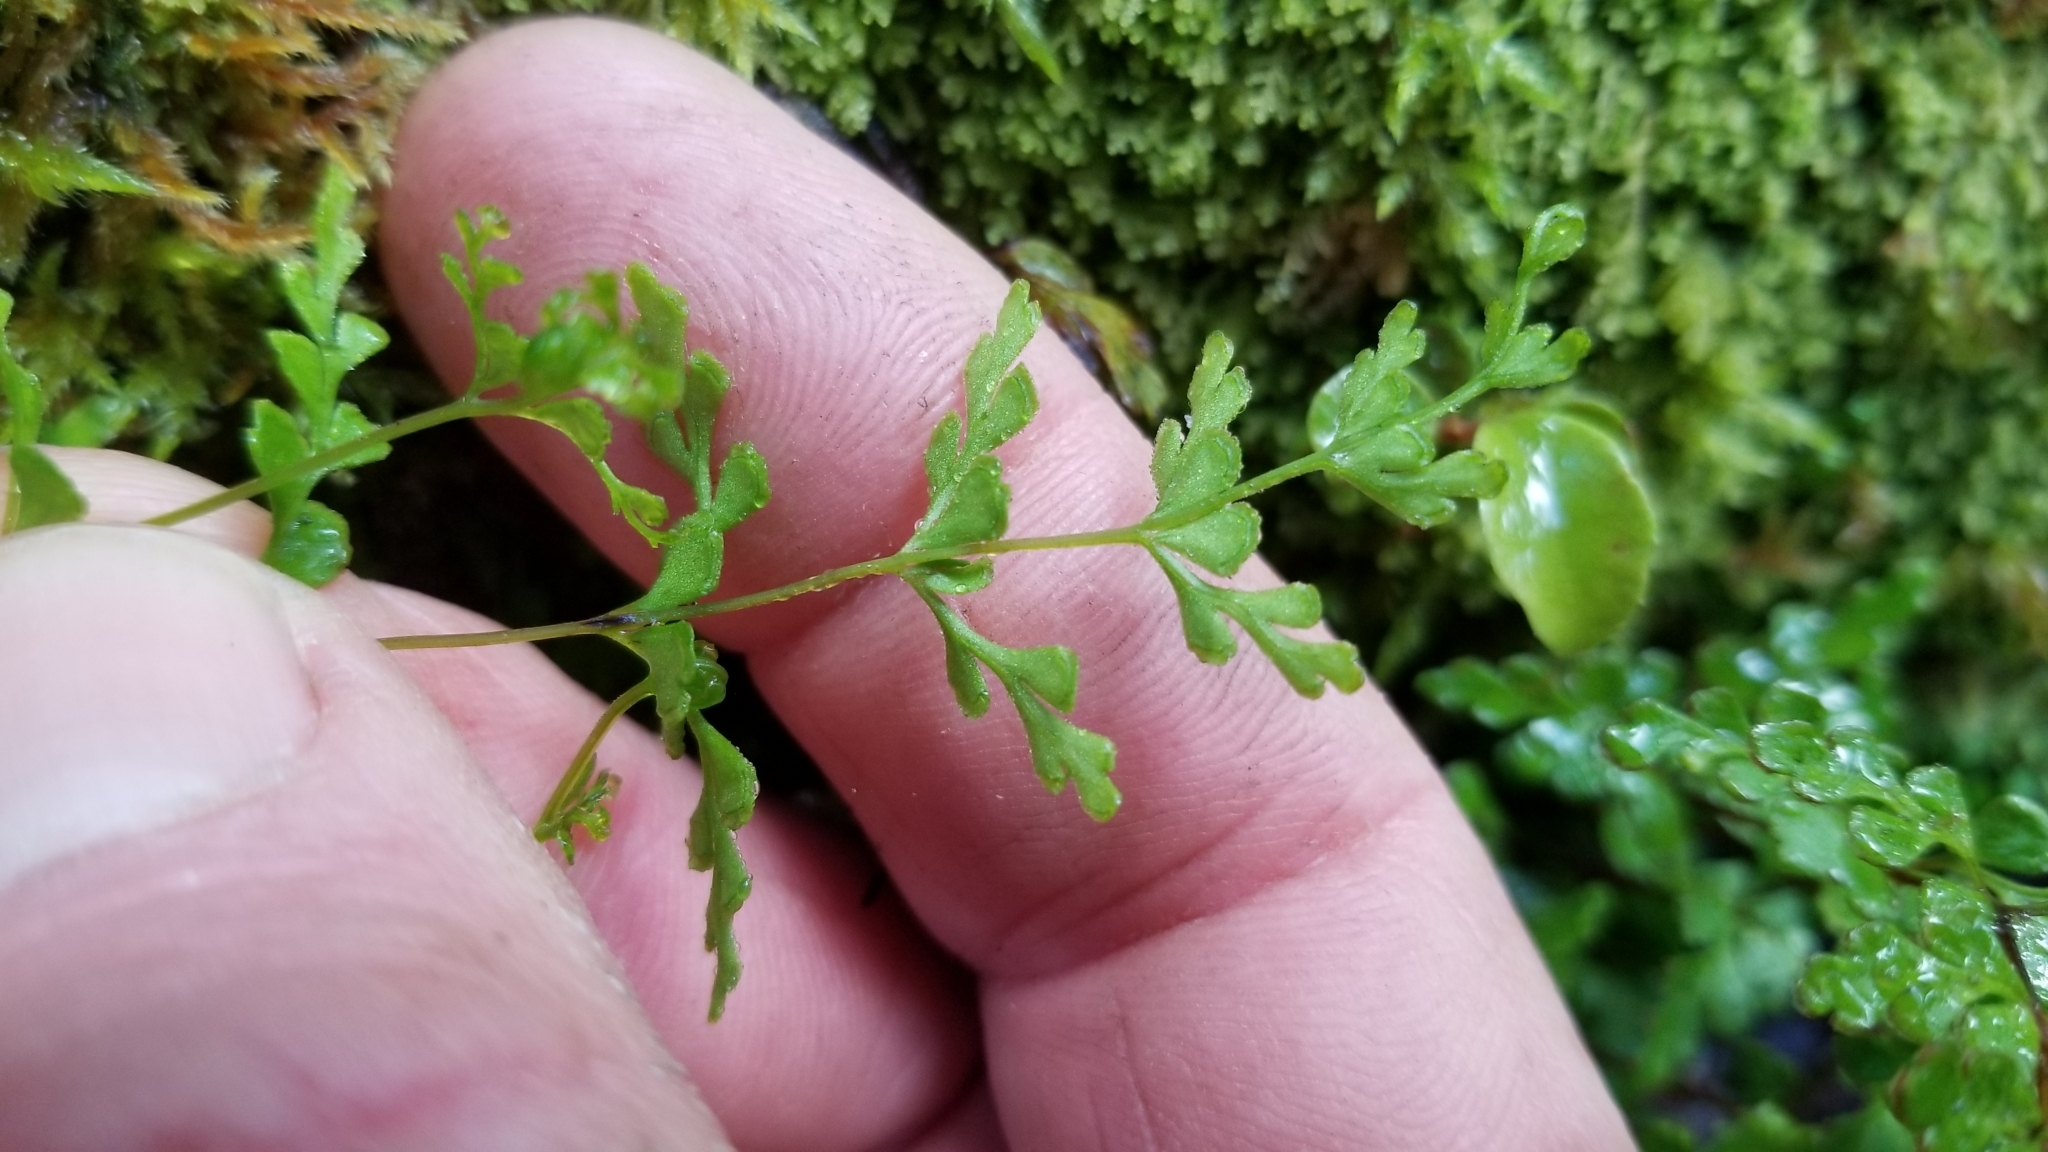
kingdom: Plantae
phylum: Tracheophyta
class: Polypodiopsida
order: Polypodiales
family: Lindsaeaceae
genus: Lindsaea
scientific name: Lindsaea trichomanoides
